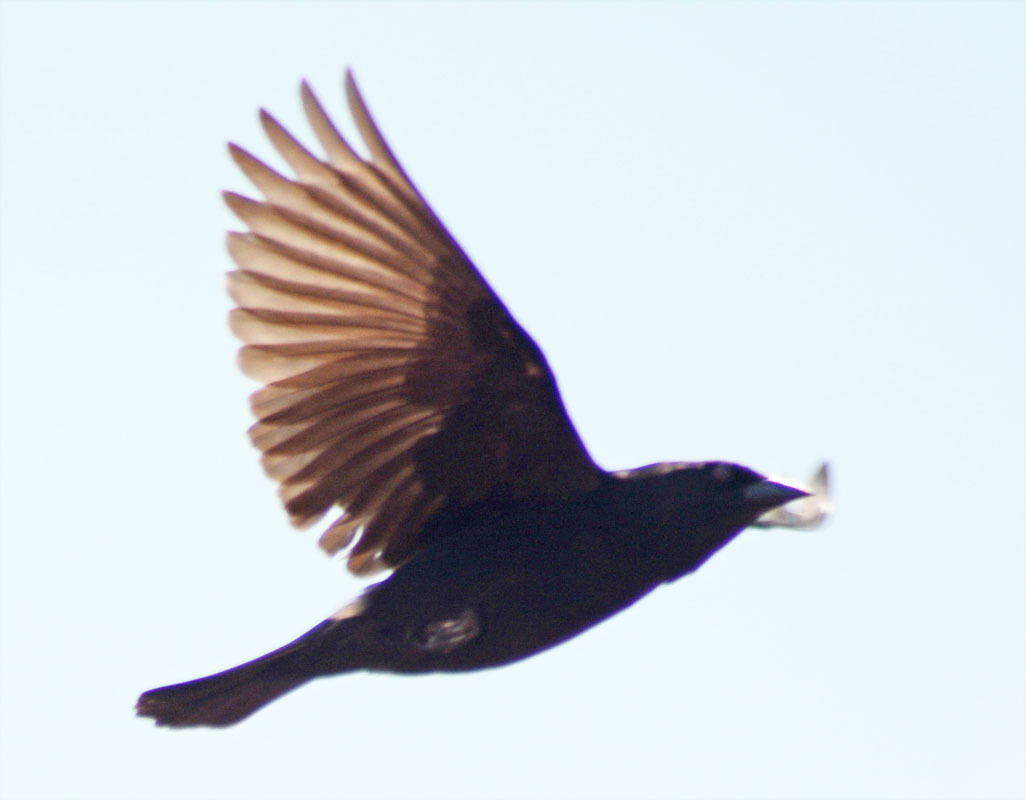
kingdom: Animalia
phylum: Chordata
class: Aves
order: Passeriformes
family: Icteridae
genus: Molothrus
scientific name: Molothrus aeneus
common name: Bronzed cowbird
